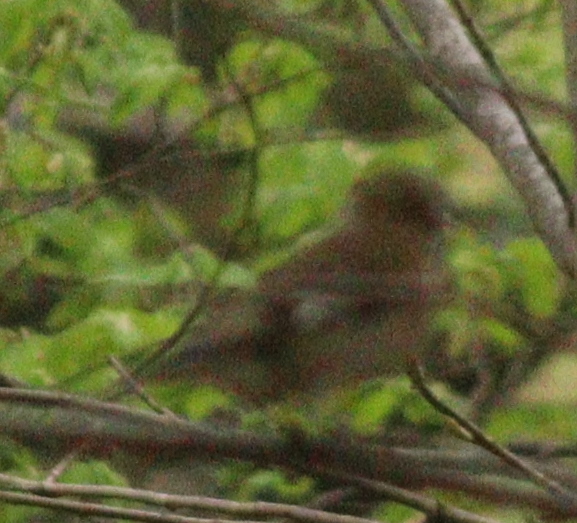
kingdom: Animalia
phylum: Chordata
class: Aves
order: Passeriformes
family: Fringillidae
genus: Fringilla
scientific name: Fringilla coelebs
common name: Common chaffinch
